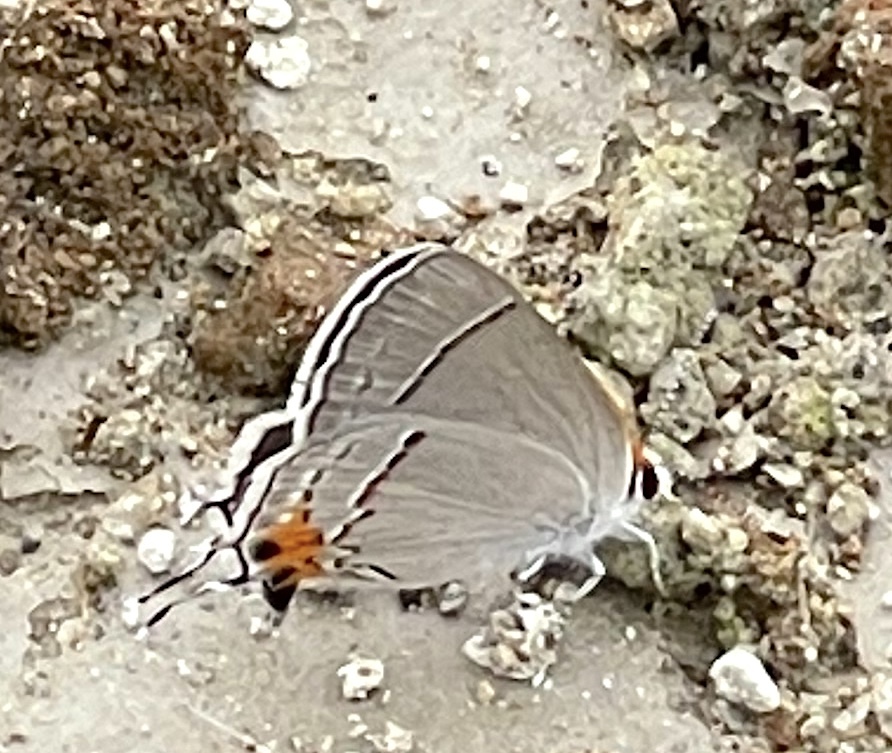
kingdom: Animalia
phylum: Arthropoda
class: Insecta
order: Lepidoptera
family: Lycaenidae
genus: Strymon
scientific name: Strymon melinus
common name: Gray hairstreak
